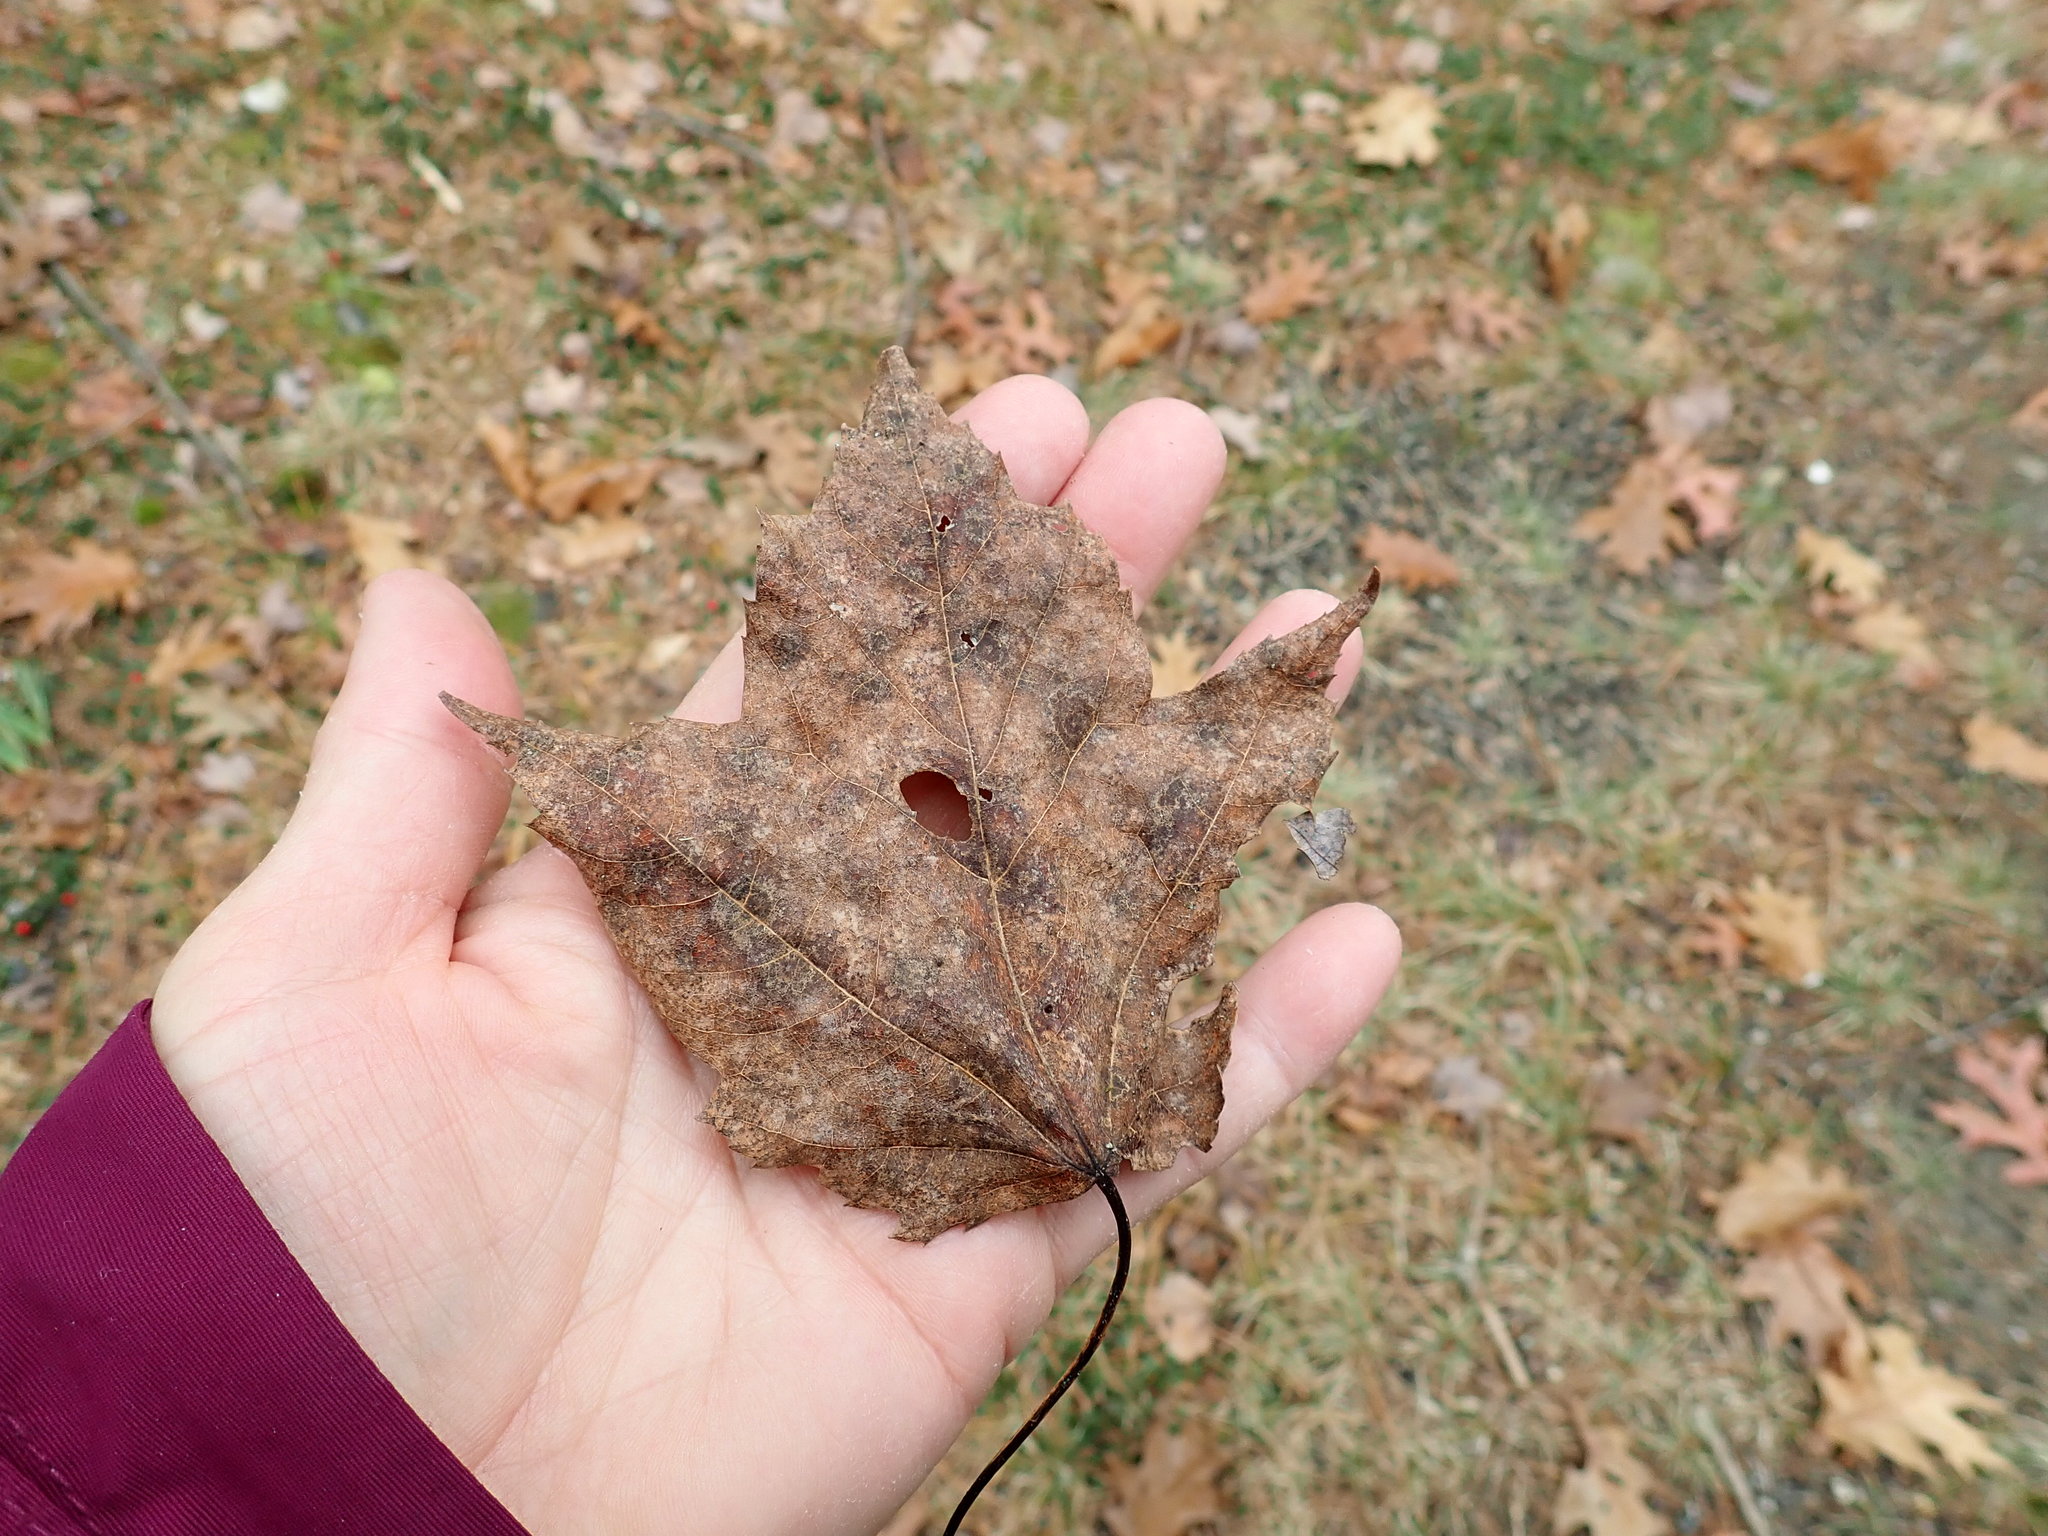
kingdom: Plantae
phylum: Tracheophyta
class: Magnoliopsida
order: Sapindales
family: Sapindaceae
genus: Acer
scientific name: Acer rubrum
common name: Red maple
